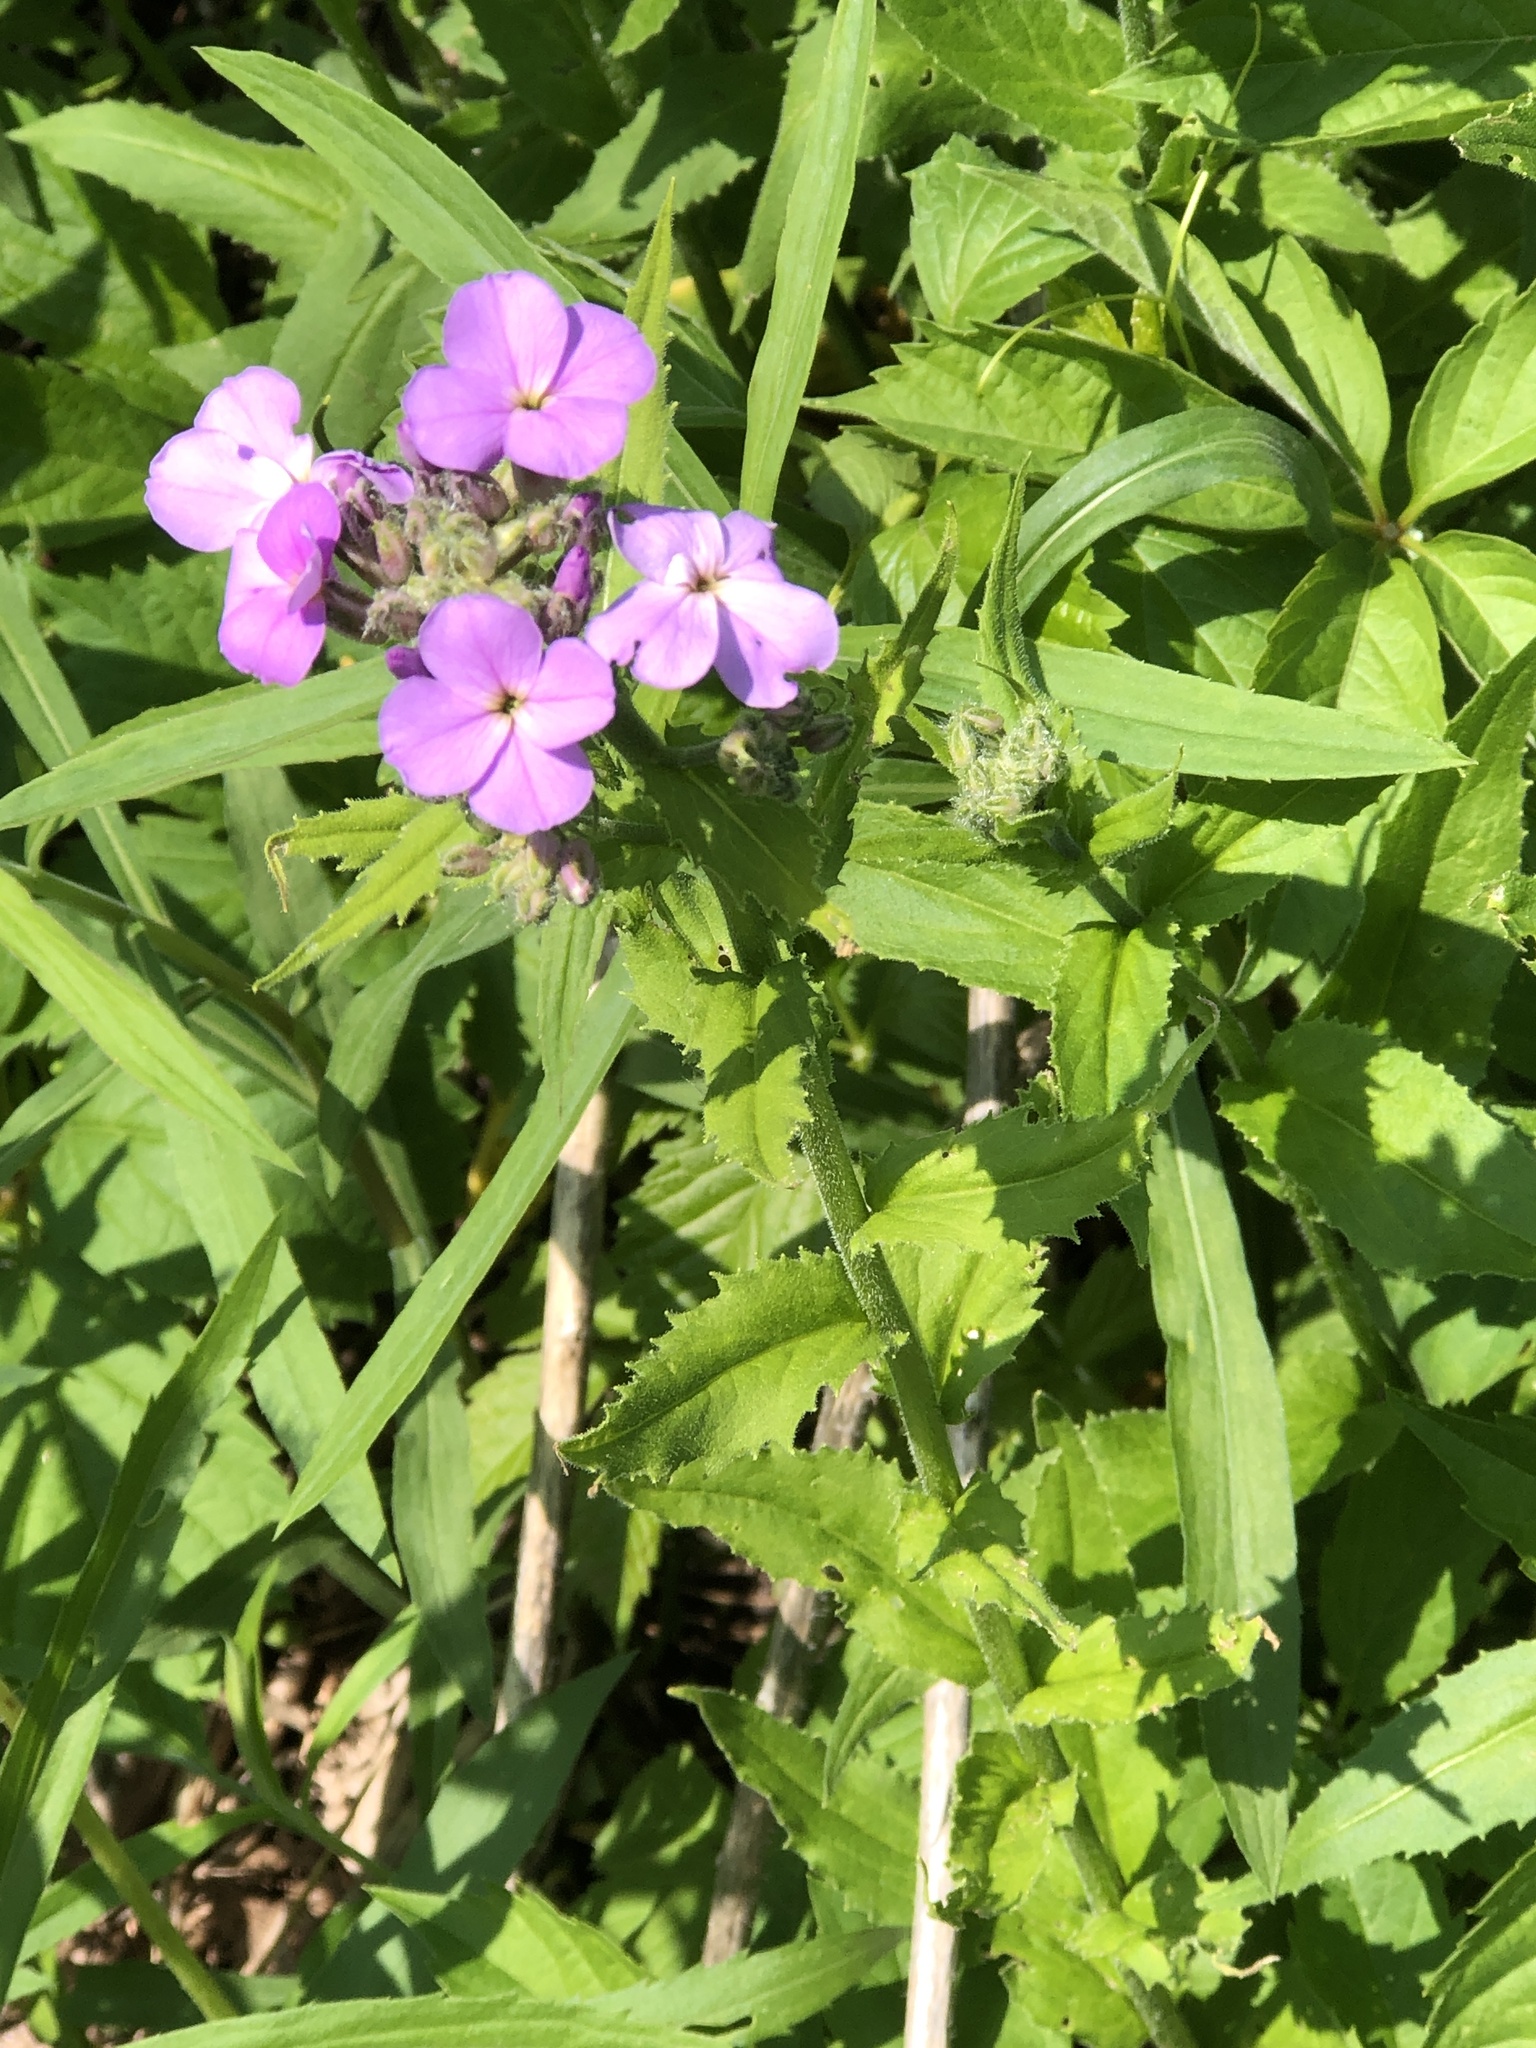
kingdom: Plantae
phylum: Tracheophyta
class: Magnoliopsida
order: Brassicales
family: Brassicaceae
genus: Hesperis
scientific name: Hesperis matronalis
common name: Dame's-violet
